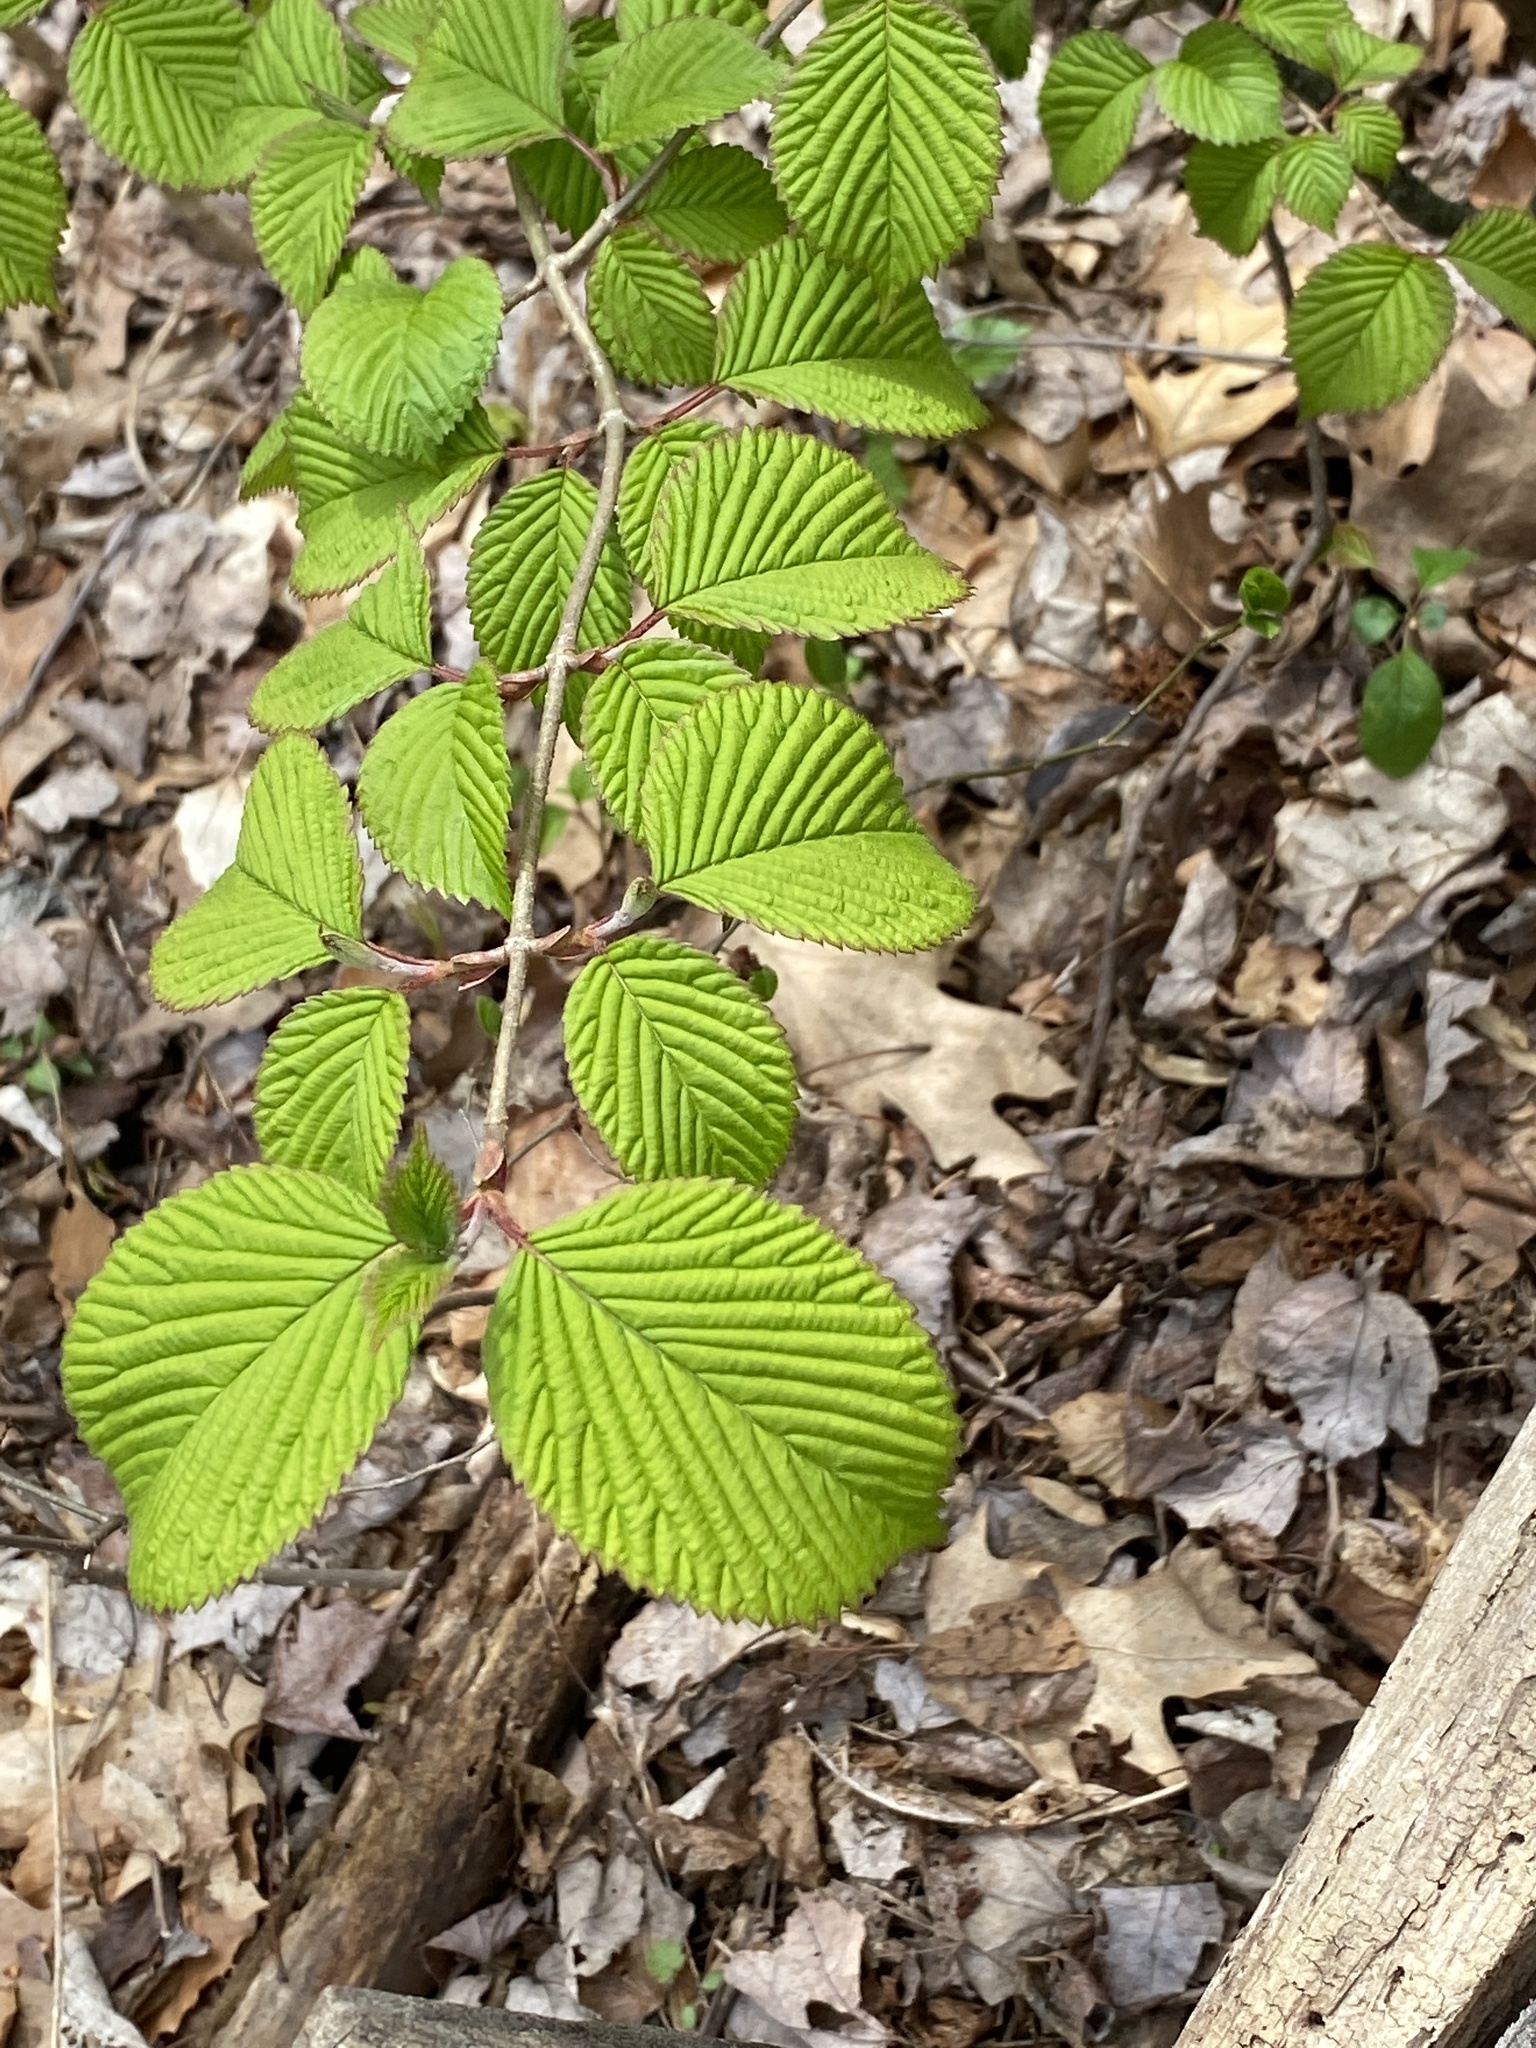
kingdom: Plantae
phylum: Tracheophyta
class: Magnoliopsida
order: Dipsacales
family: Viburnaceae
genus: Viburnum
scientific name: Viburnum plicatum
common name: Japanese snowball
